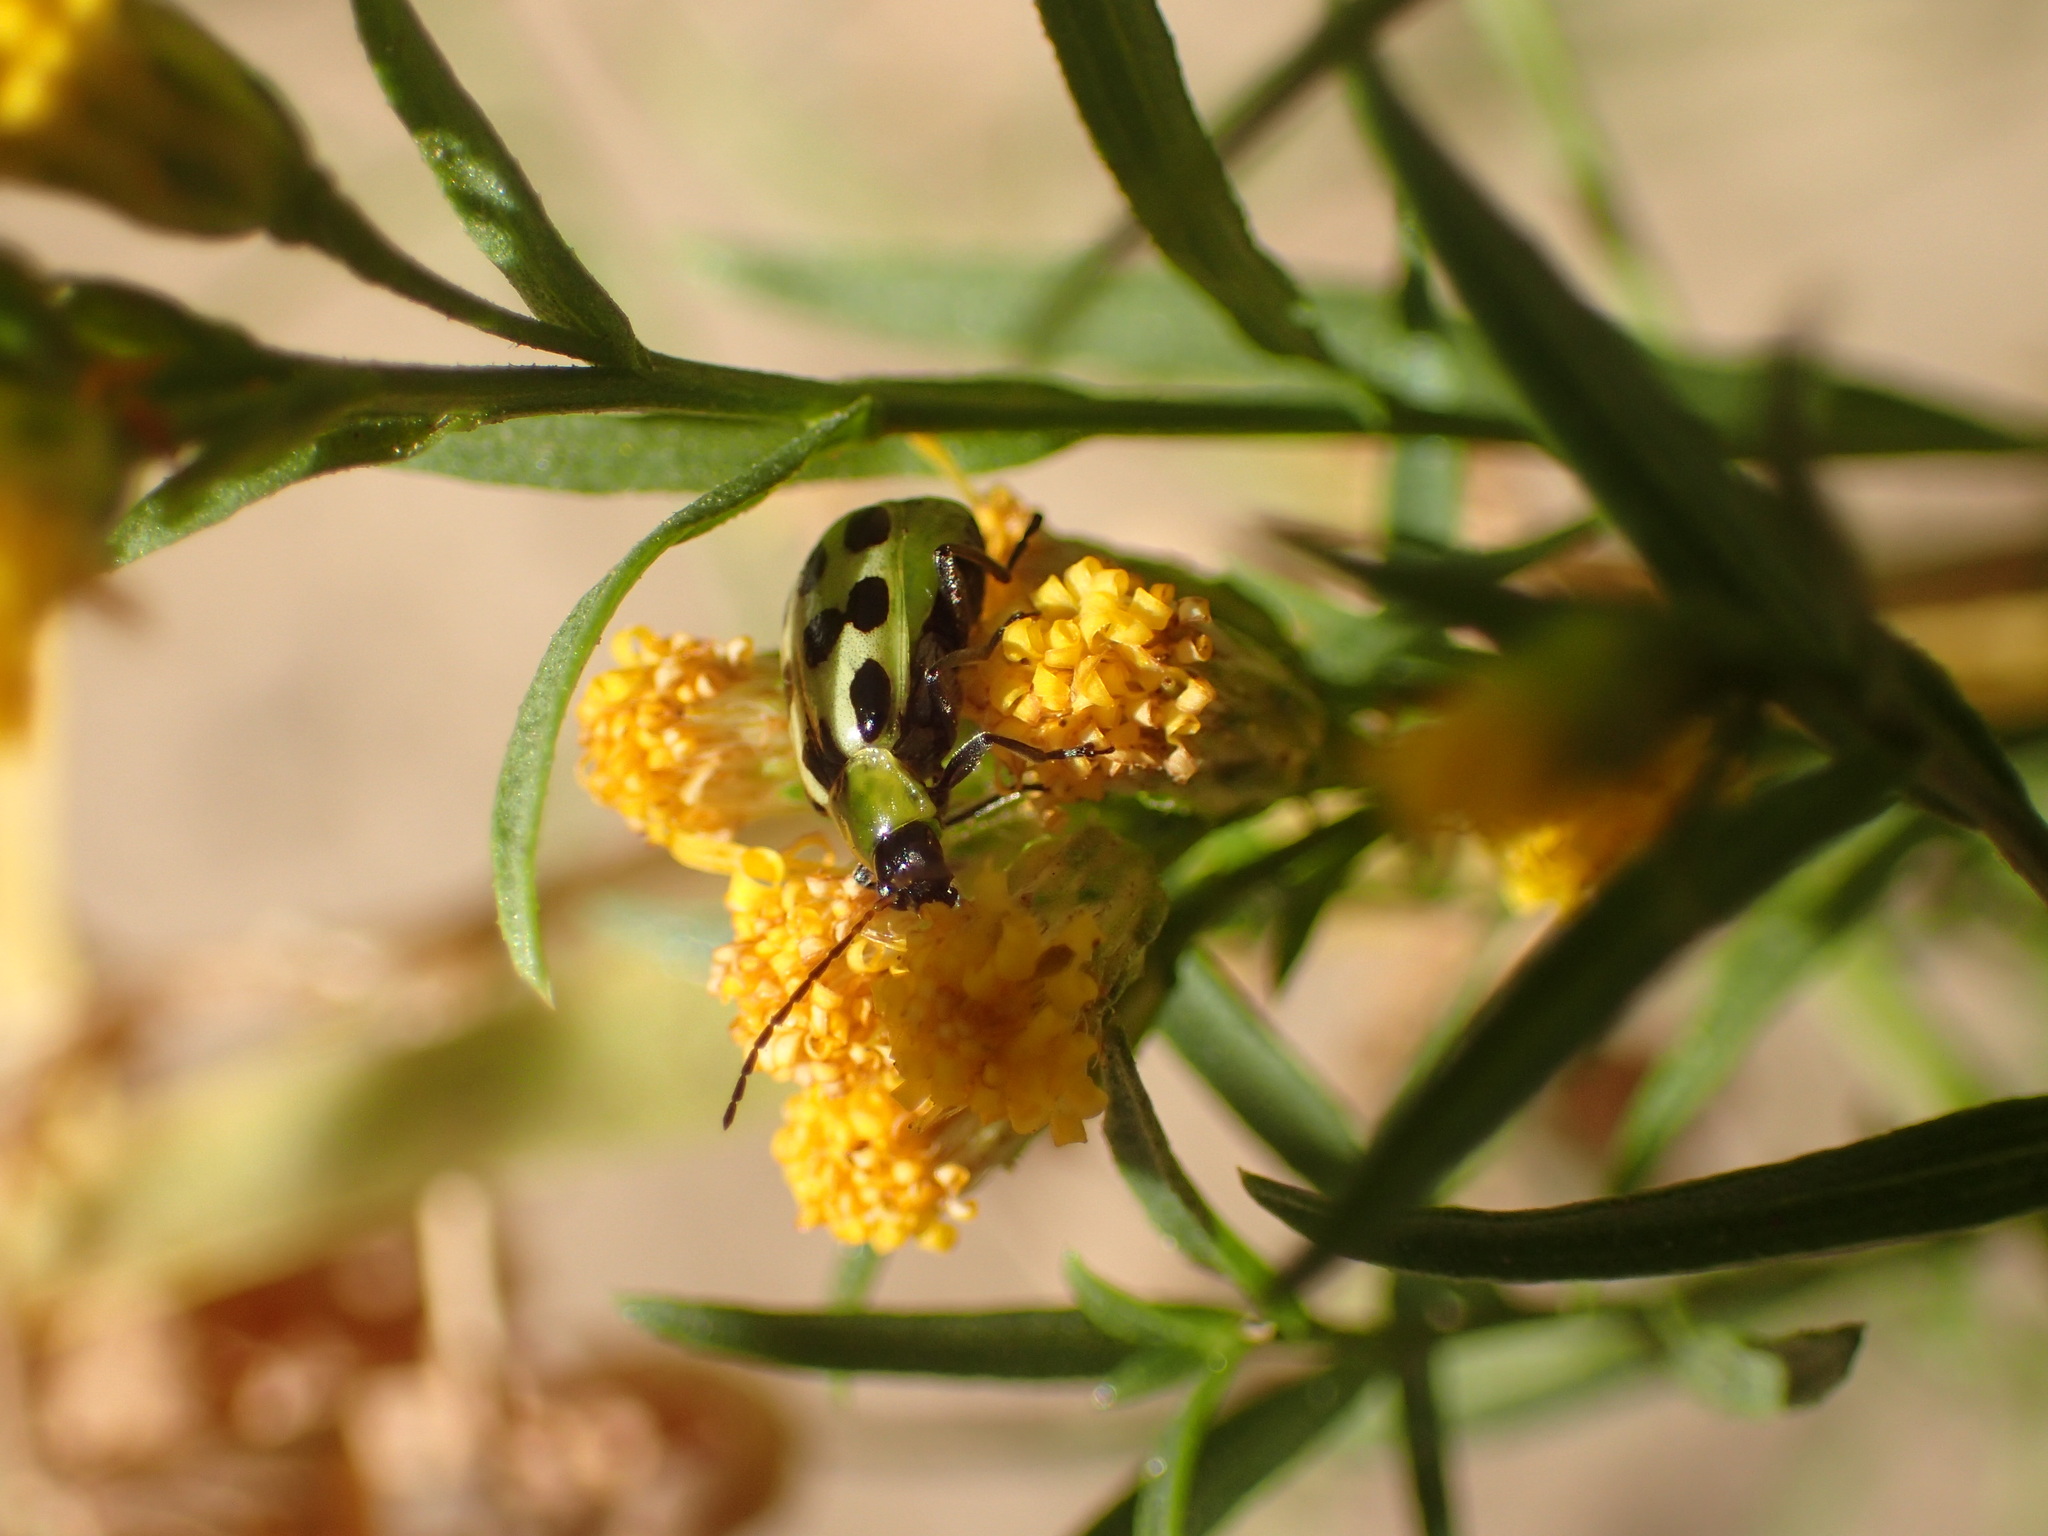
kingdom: Animalia
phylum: Arthropoda
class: Insecta
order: Coleoptera
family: Chrysomelidae
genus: Diabrotica
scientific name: Diabrotica undecimpunctata
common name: Spotted cucumber beetle
